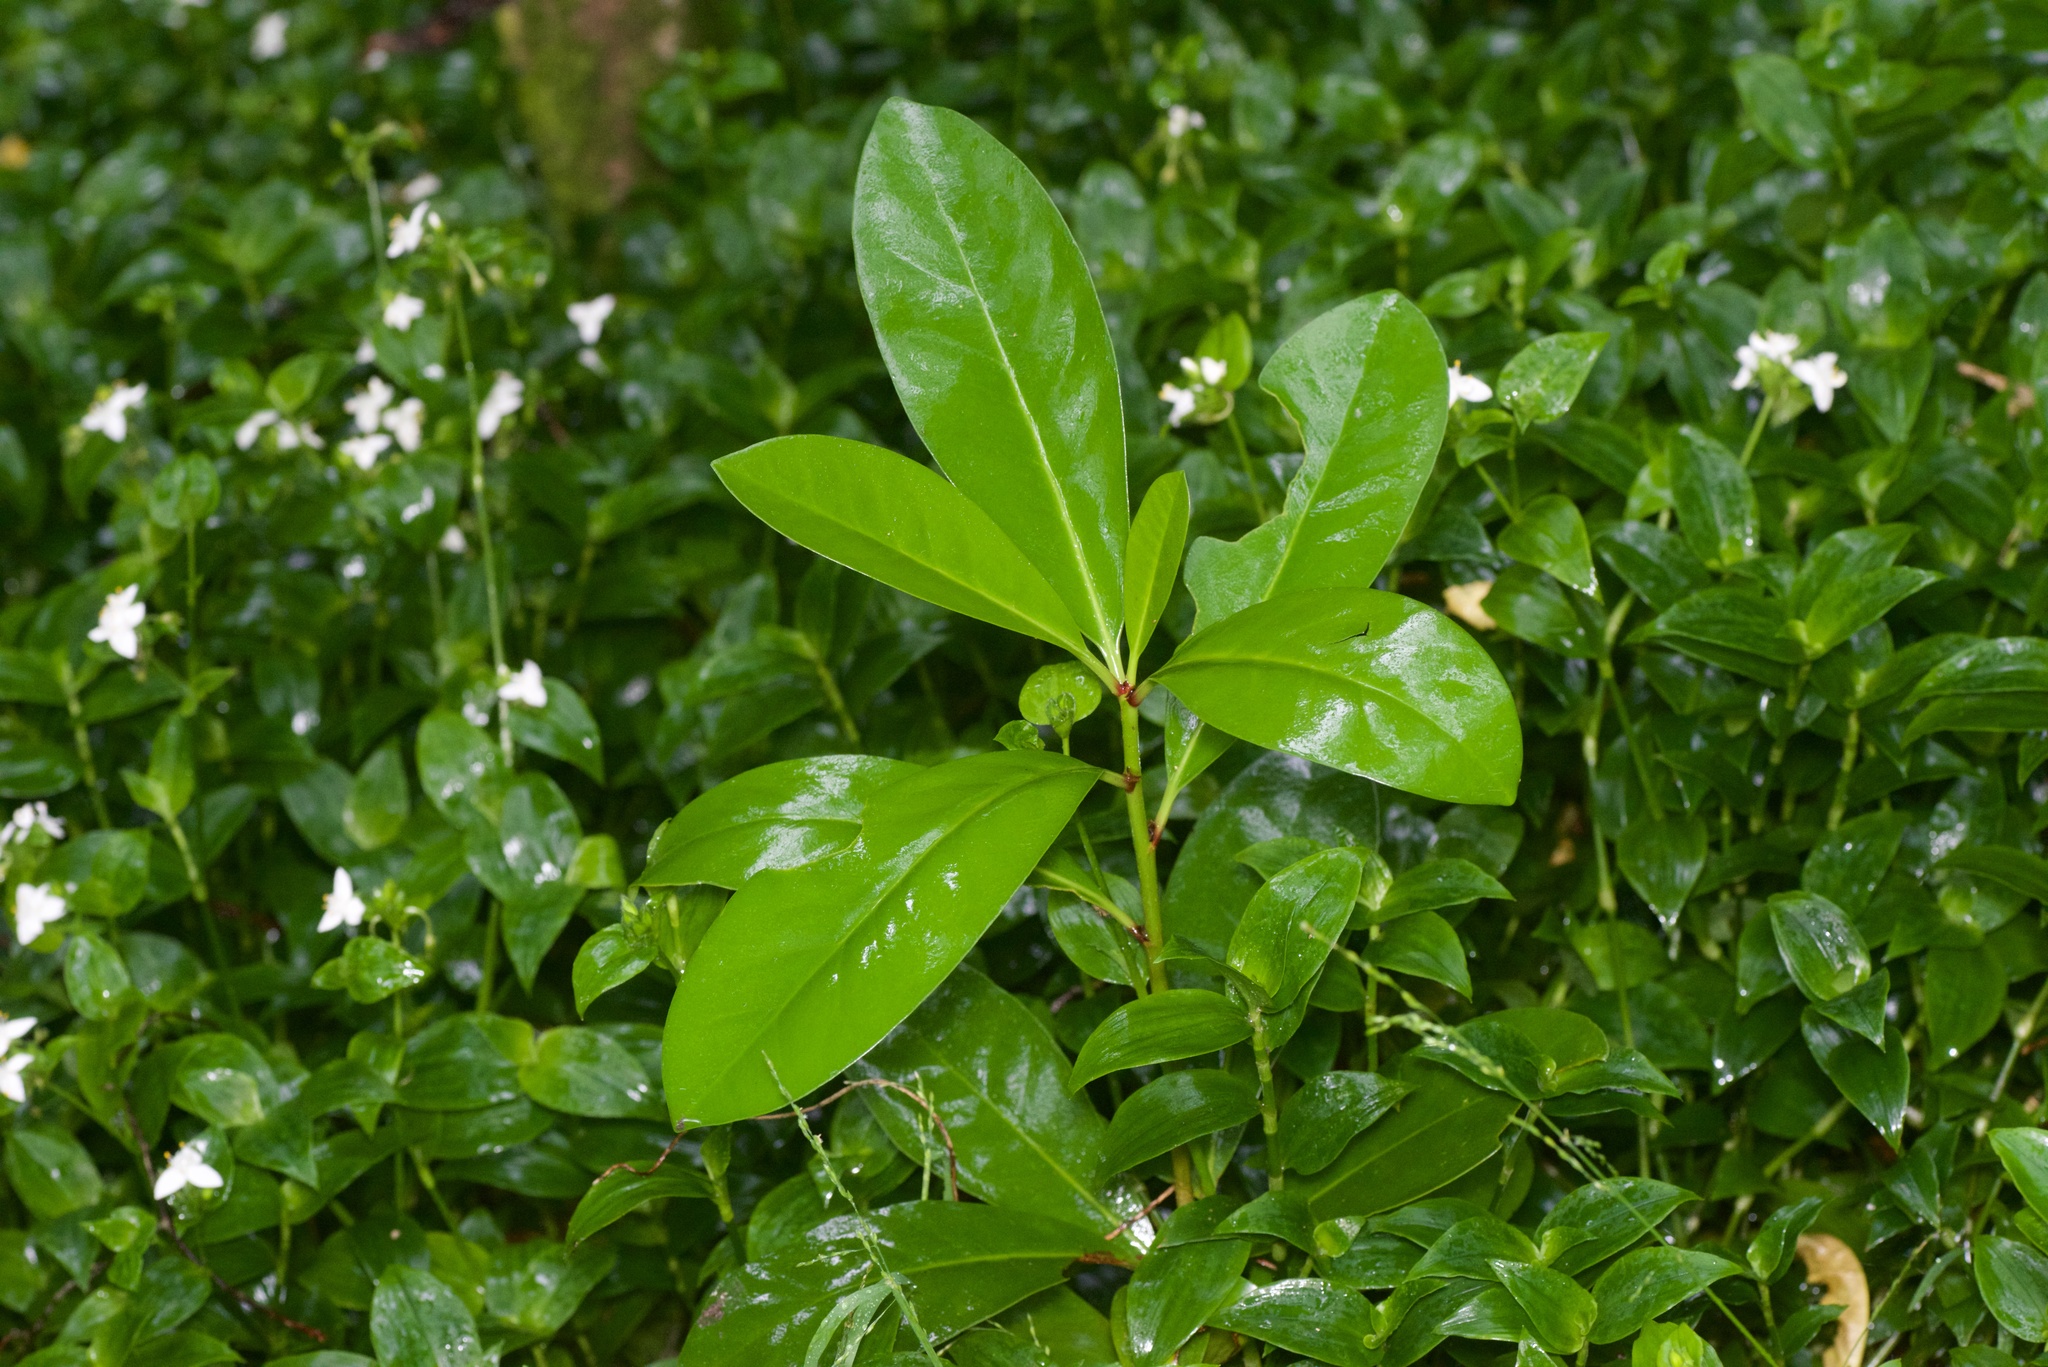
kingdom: Plantae
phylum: Tracheophyta
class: Magnoliopsida
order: Cucurbitales
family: Corynocarpaceae
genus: Corynocarpus
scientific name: Corynocarpus laevigatus
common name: New zealand laurel
